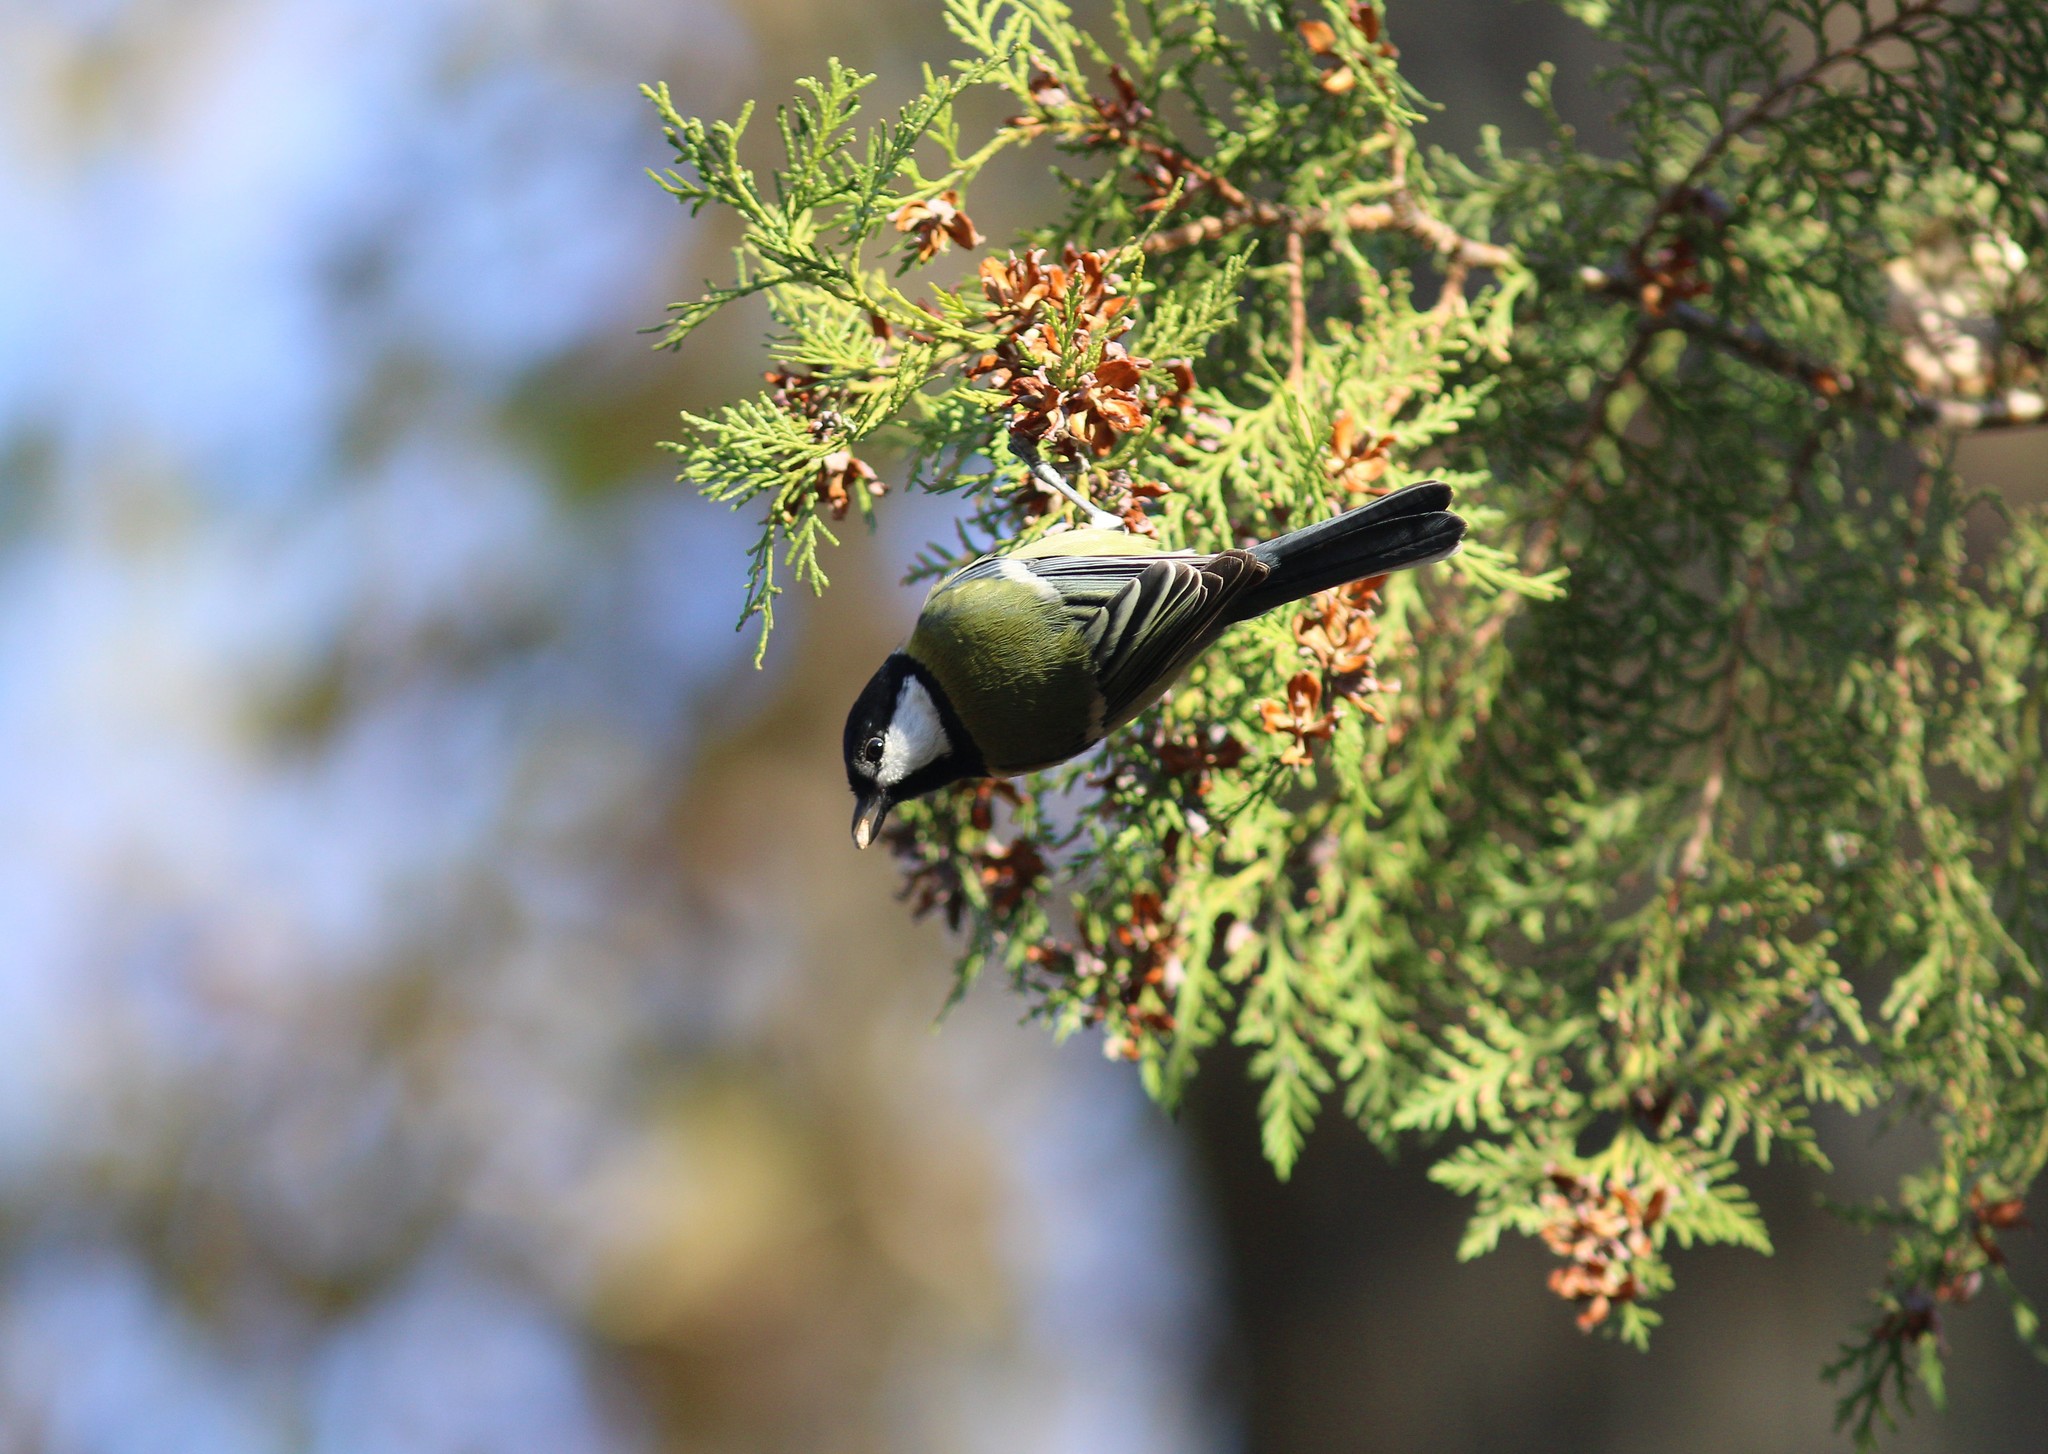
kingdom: Animalia
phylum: Chordata
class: Aves
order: Passeriformes
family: Paridae
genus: Parus
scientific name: Parus major
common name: Great tit
